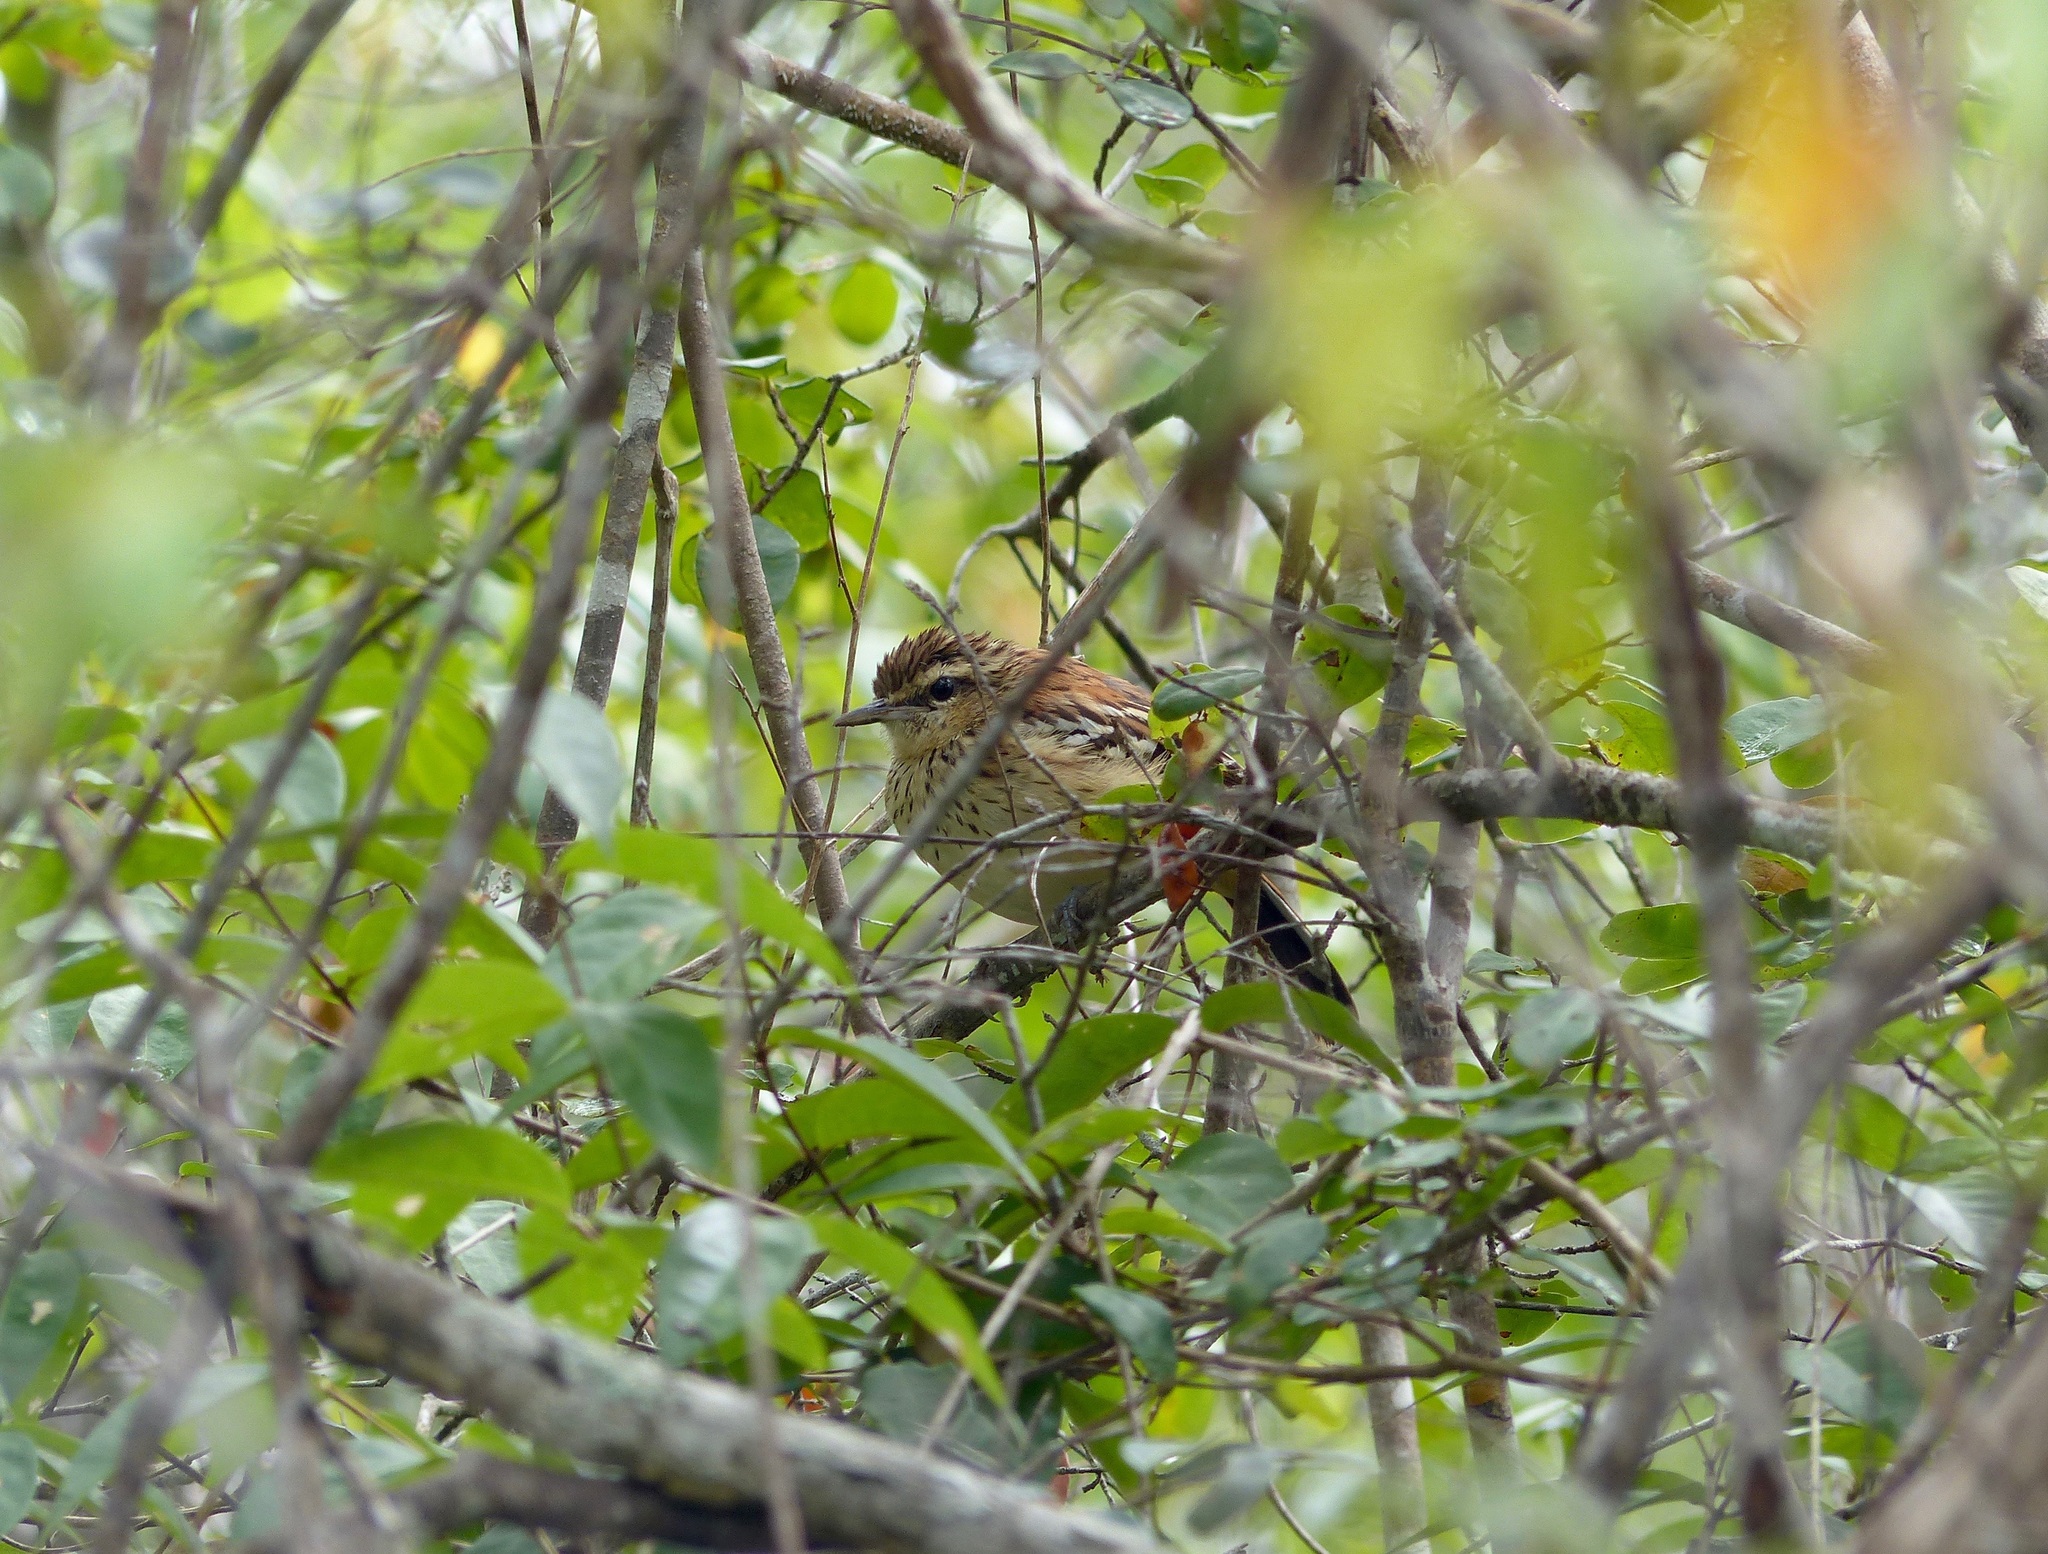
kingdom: Animalia
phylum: Chordata
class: Aves
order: Passeriformes
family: Thamnophilidae
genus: Myrmorchilus
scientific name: Myrmorchilus strigilatus
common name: Stripe-backed antbird
